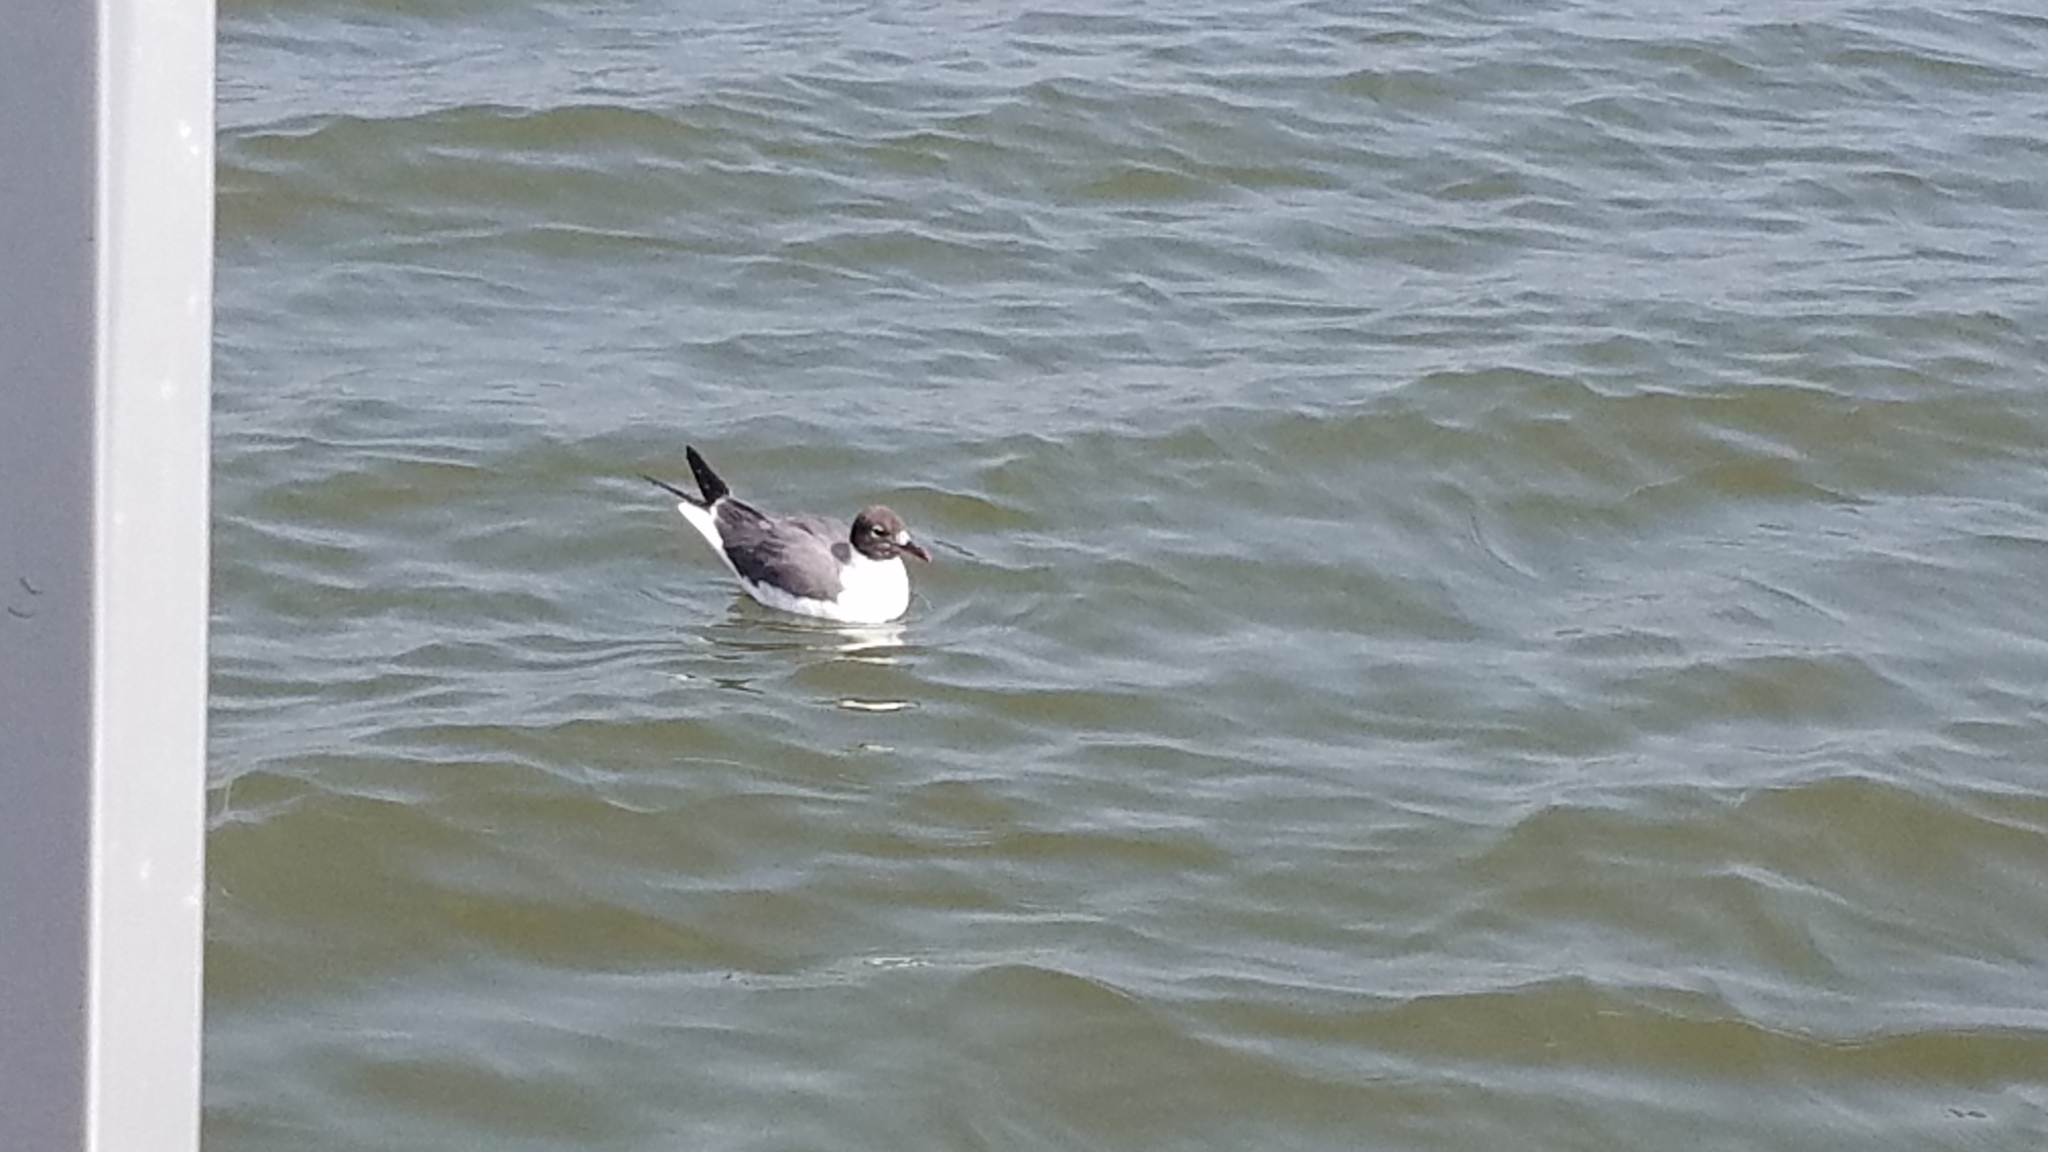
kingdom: Animalia
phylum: Chordata
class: Aves
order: Charadriiformes
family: Laridae
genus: Leucophaeus
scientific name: Leucophaeus atricilla
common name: Laughing gull
